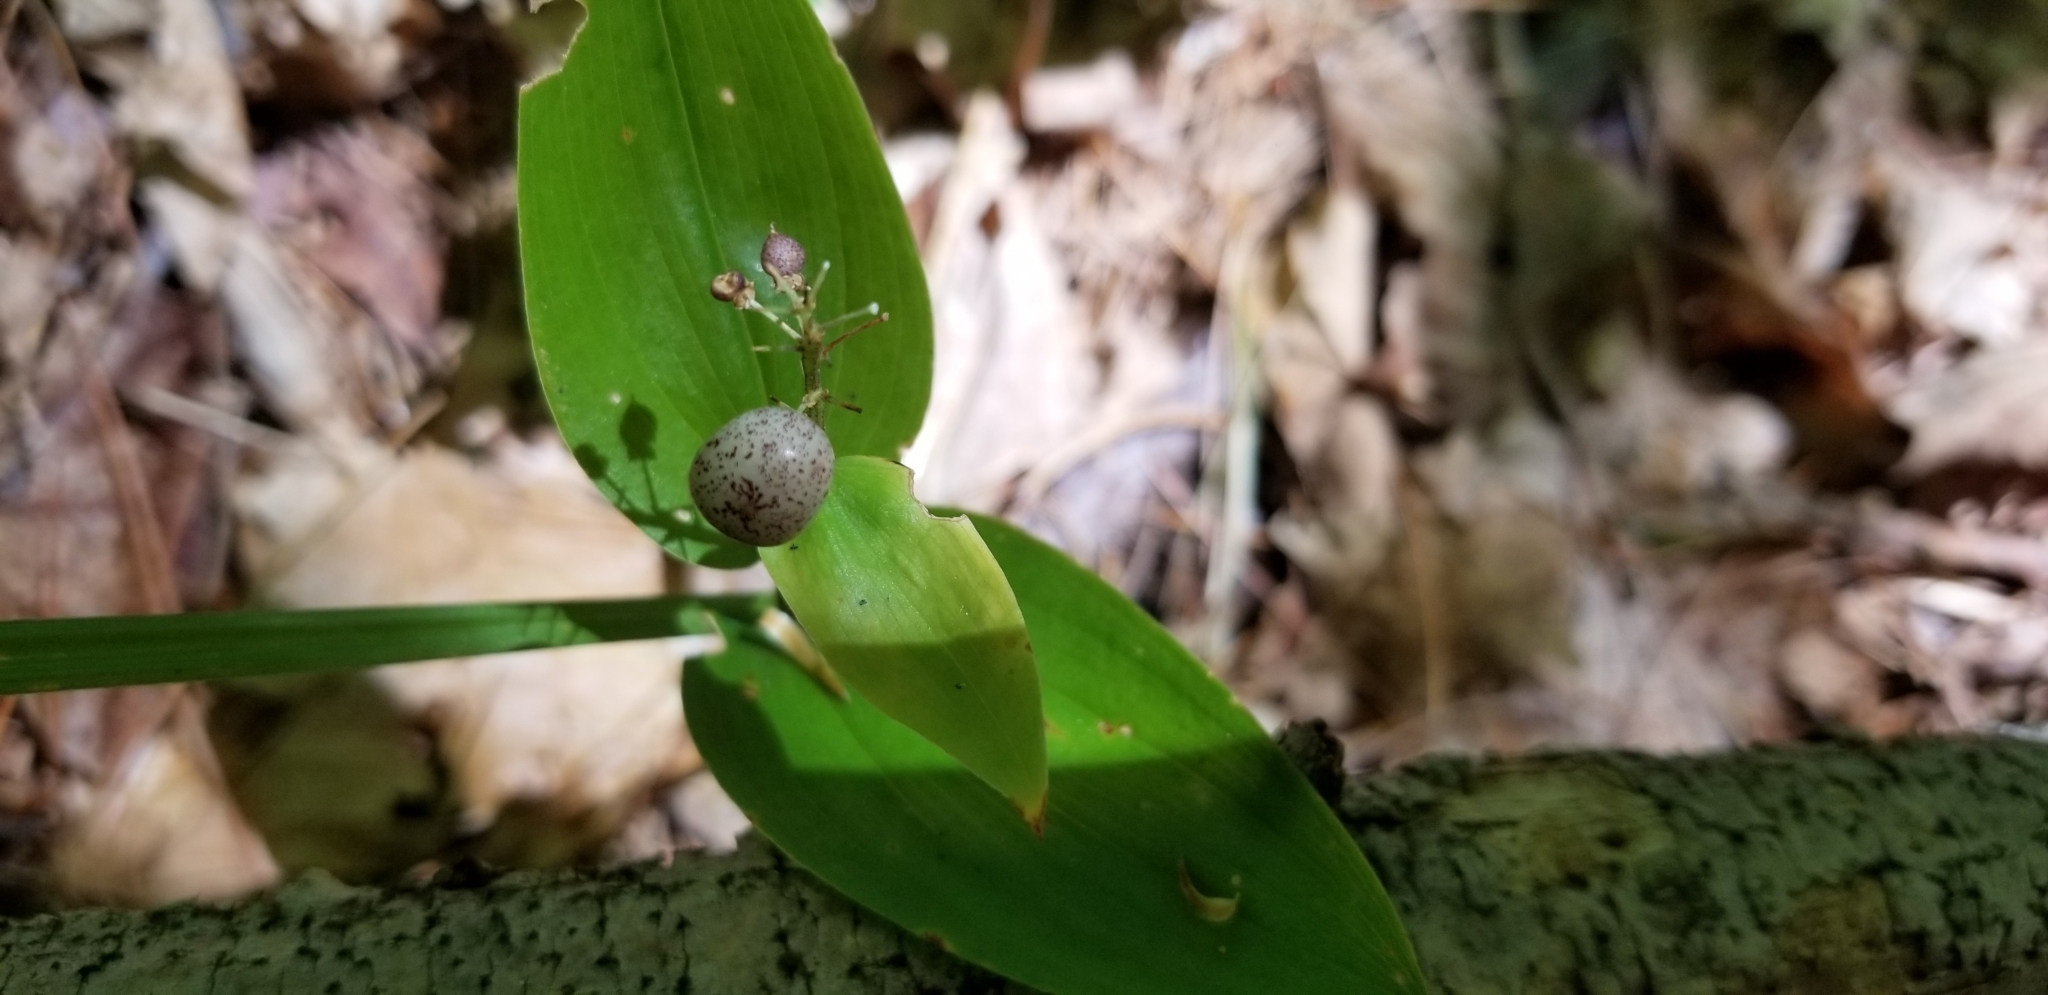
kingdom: Plantae
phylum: Tracheophyta
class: Liliopsida
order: Asparagales
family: Asparagaceae
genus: Maianthemum
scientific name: Maianthemum canadense
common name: False lily-of-the-valley
